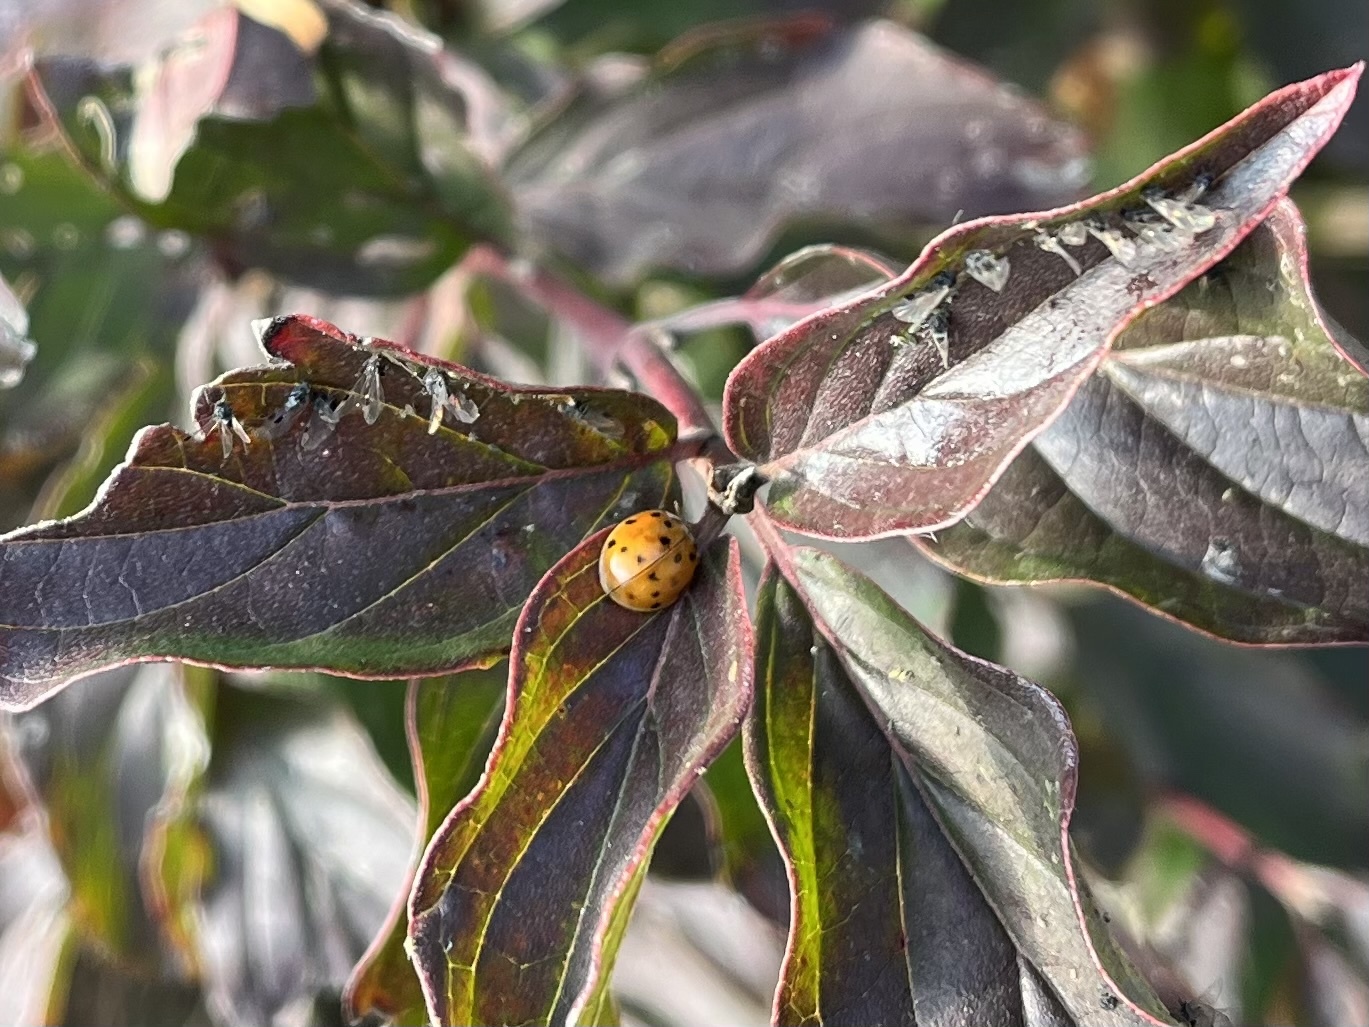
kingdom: Animalia
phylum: Arthropoda
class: Insecta
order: Coleoptera
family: Coccinellidae
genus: Harmonia
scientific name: Harmonia axyridis
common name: Harlequin ladybird
